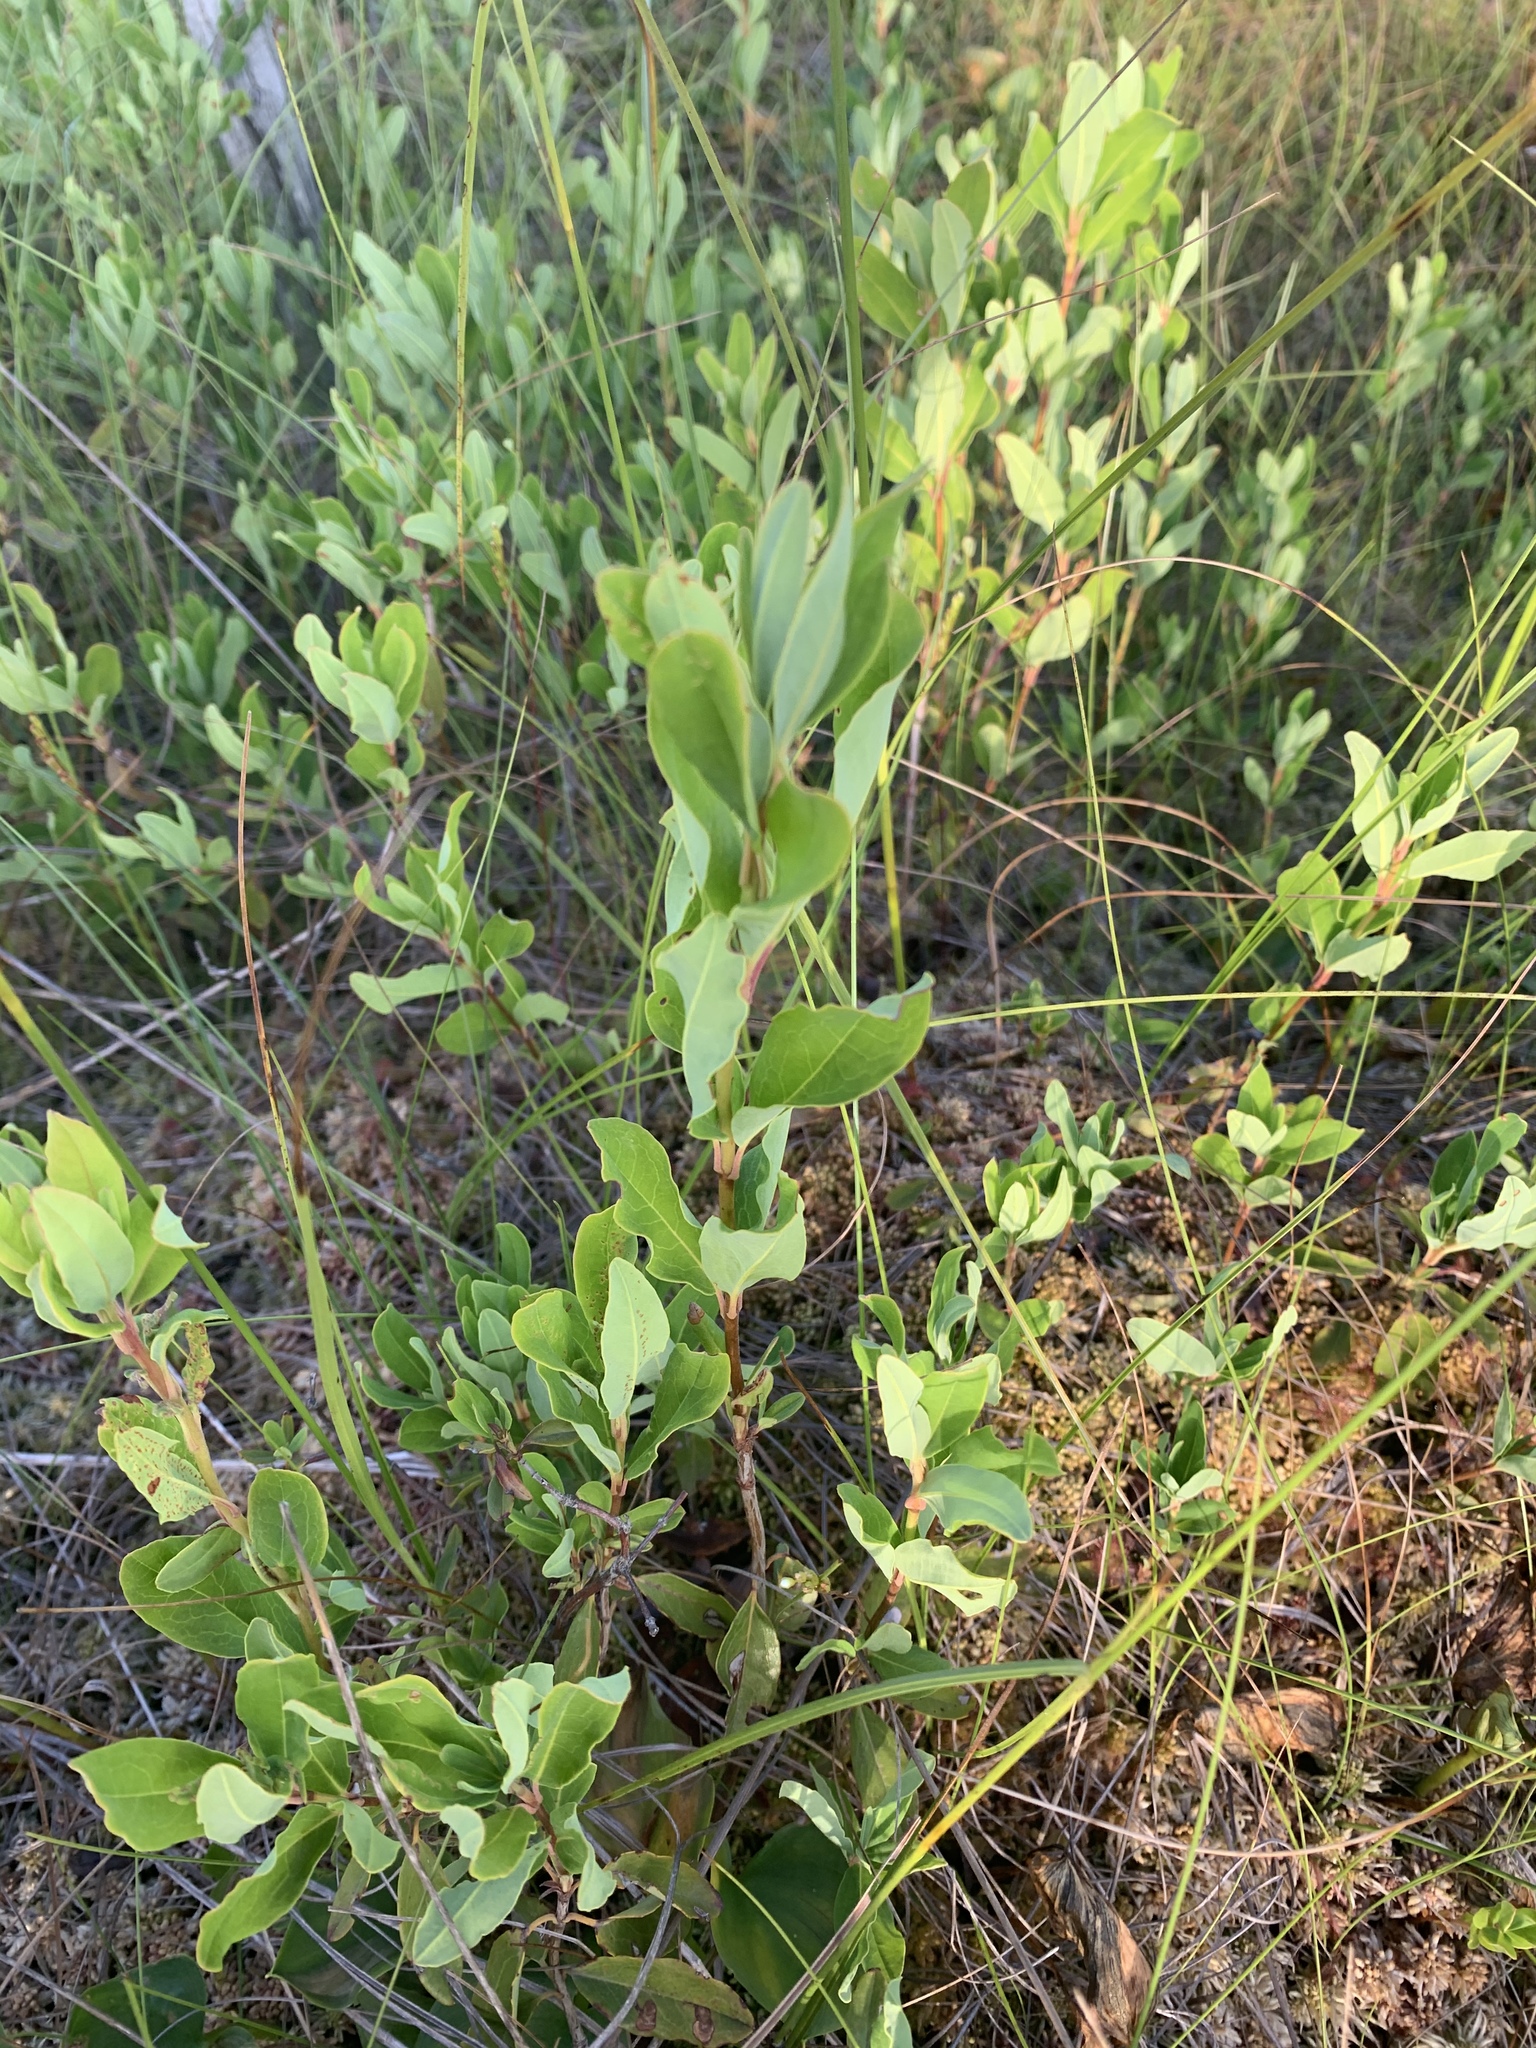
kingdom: Plantae
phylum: Tracheophyta
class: Magnoliopsida
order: Ericales
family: Ericaceae
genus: Kalmia
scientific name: Kalmia angustifolia
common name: Sheep-laurel
